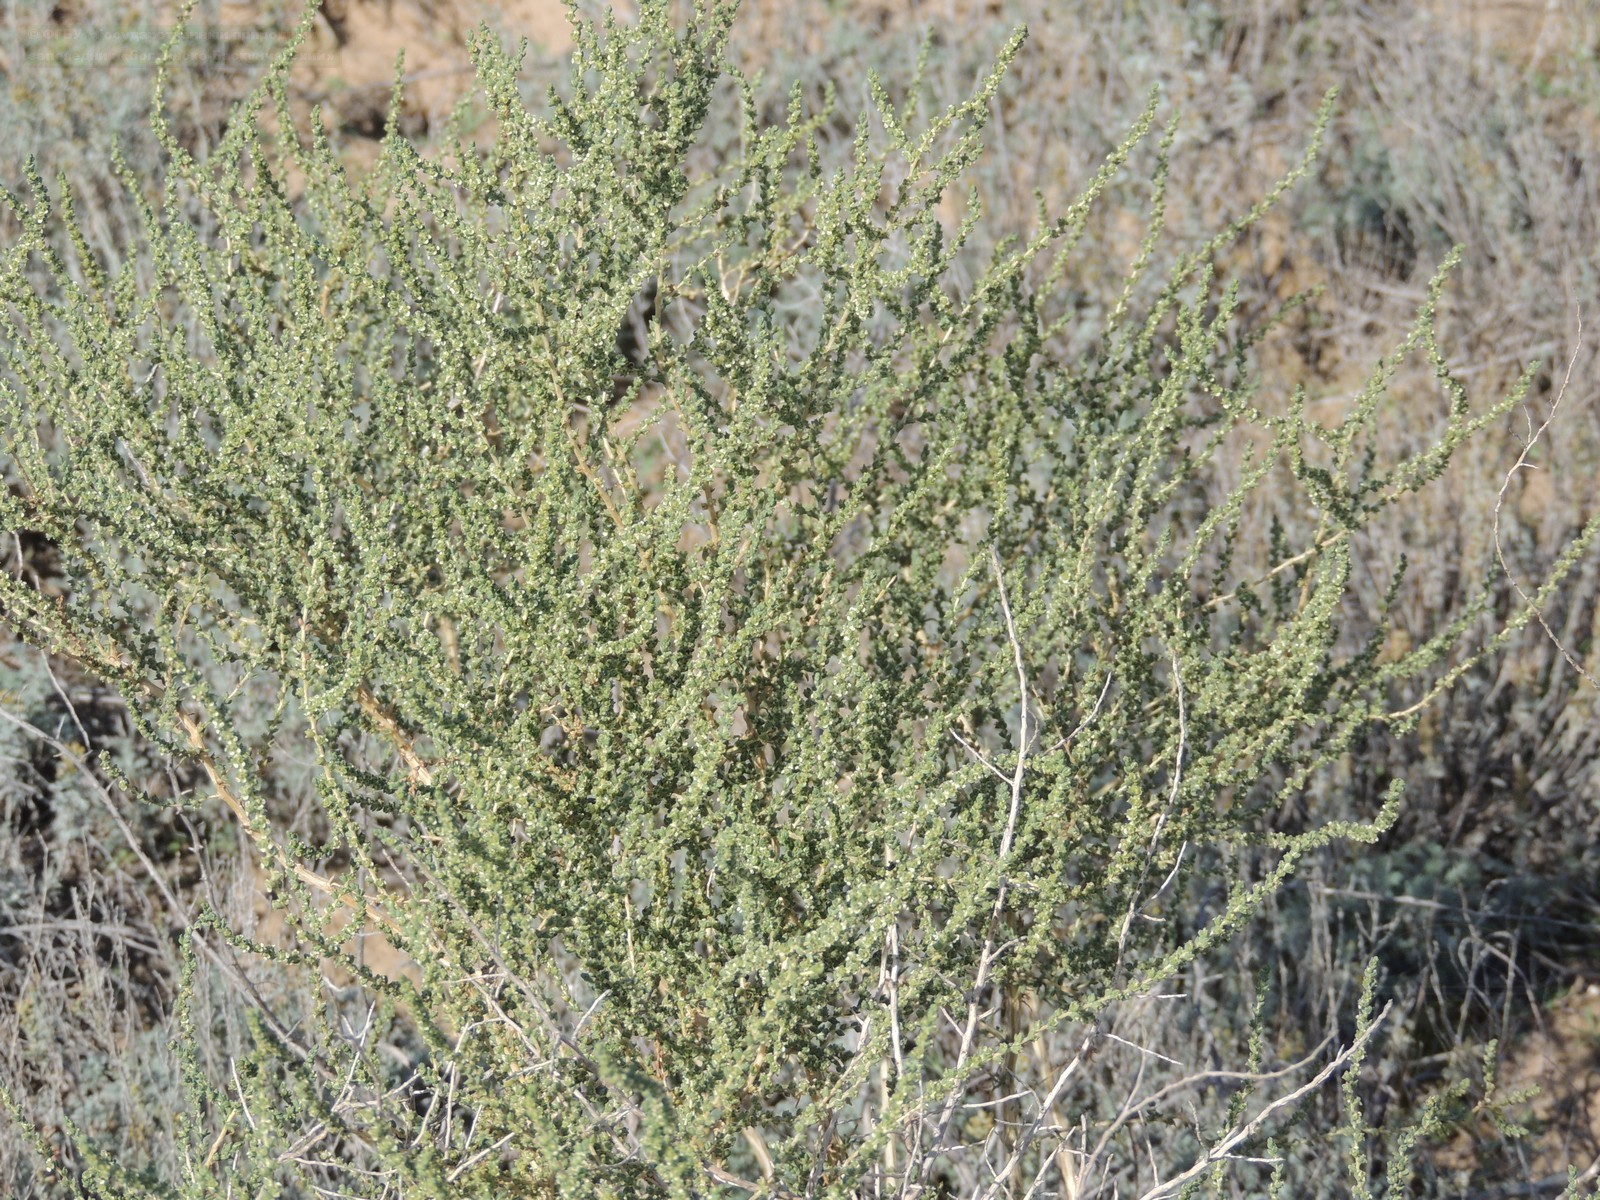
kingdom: Plantae
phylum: Tracheophyta
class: Magnoliopsida
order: Caryophyllales
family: Amaranthaceae
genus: Nitrosalsola
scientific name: Nitrosalsola laricina
